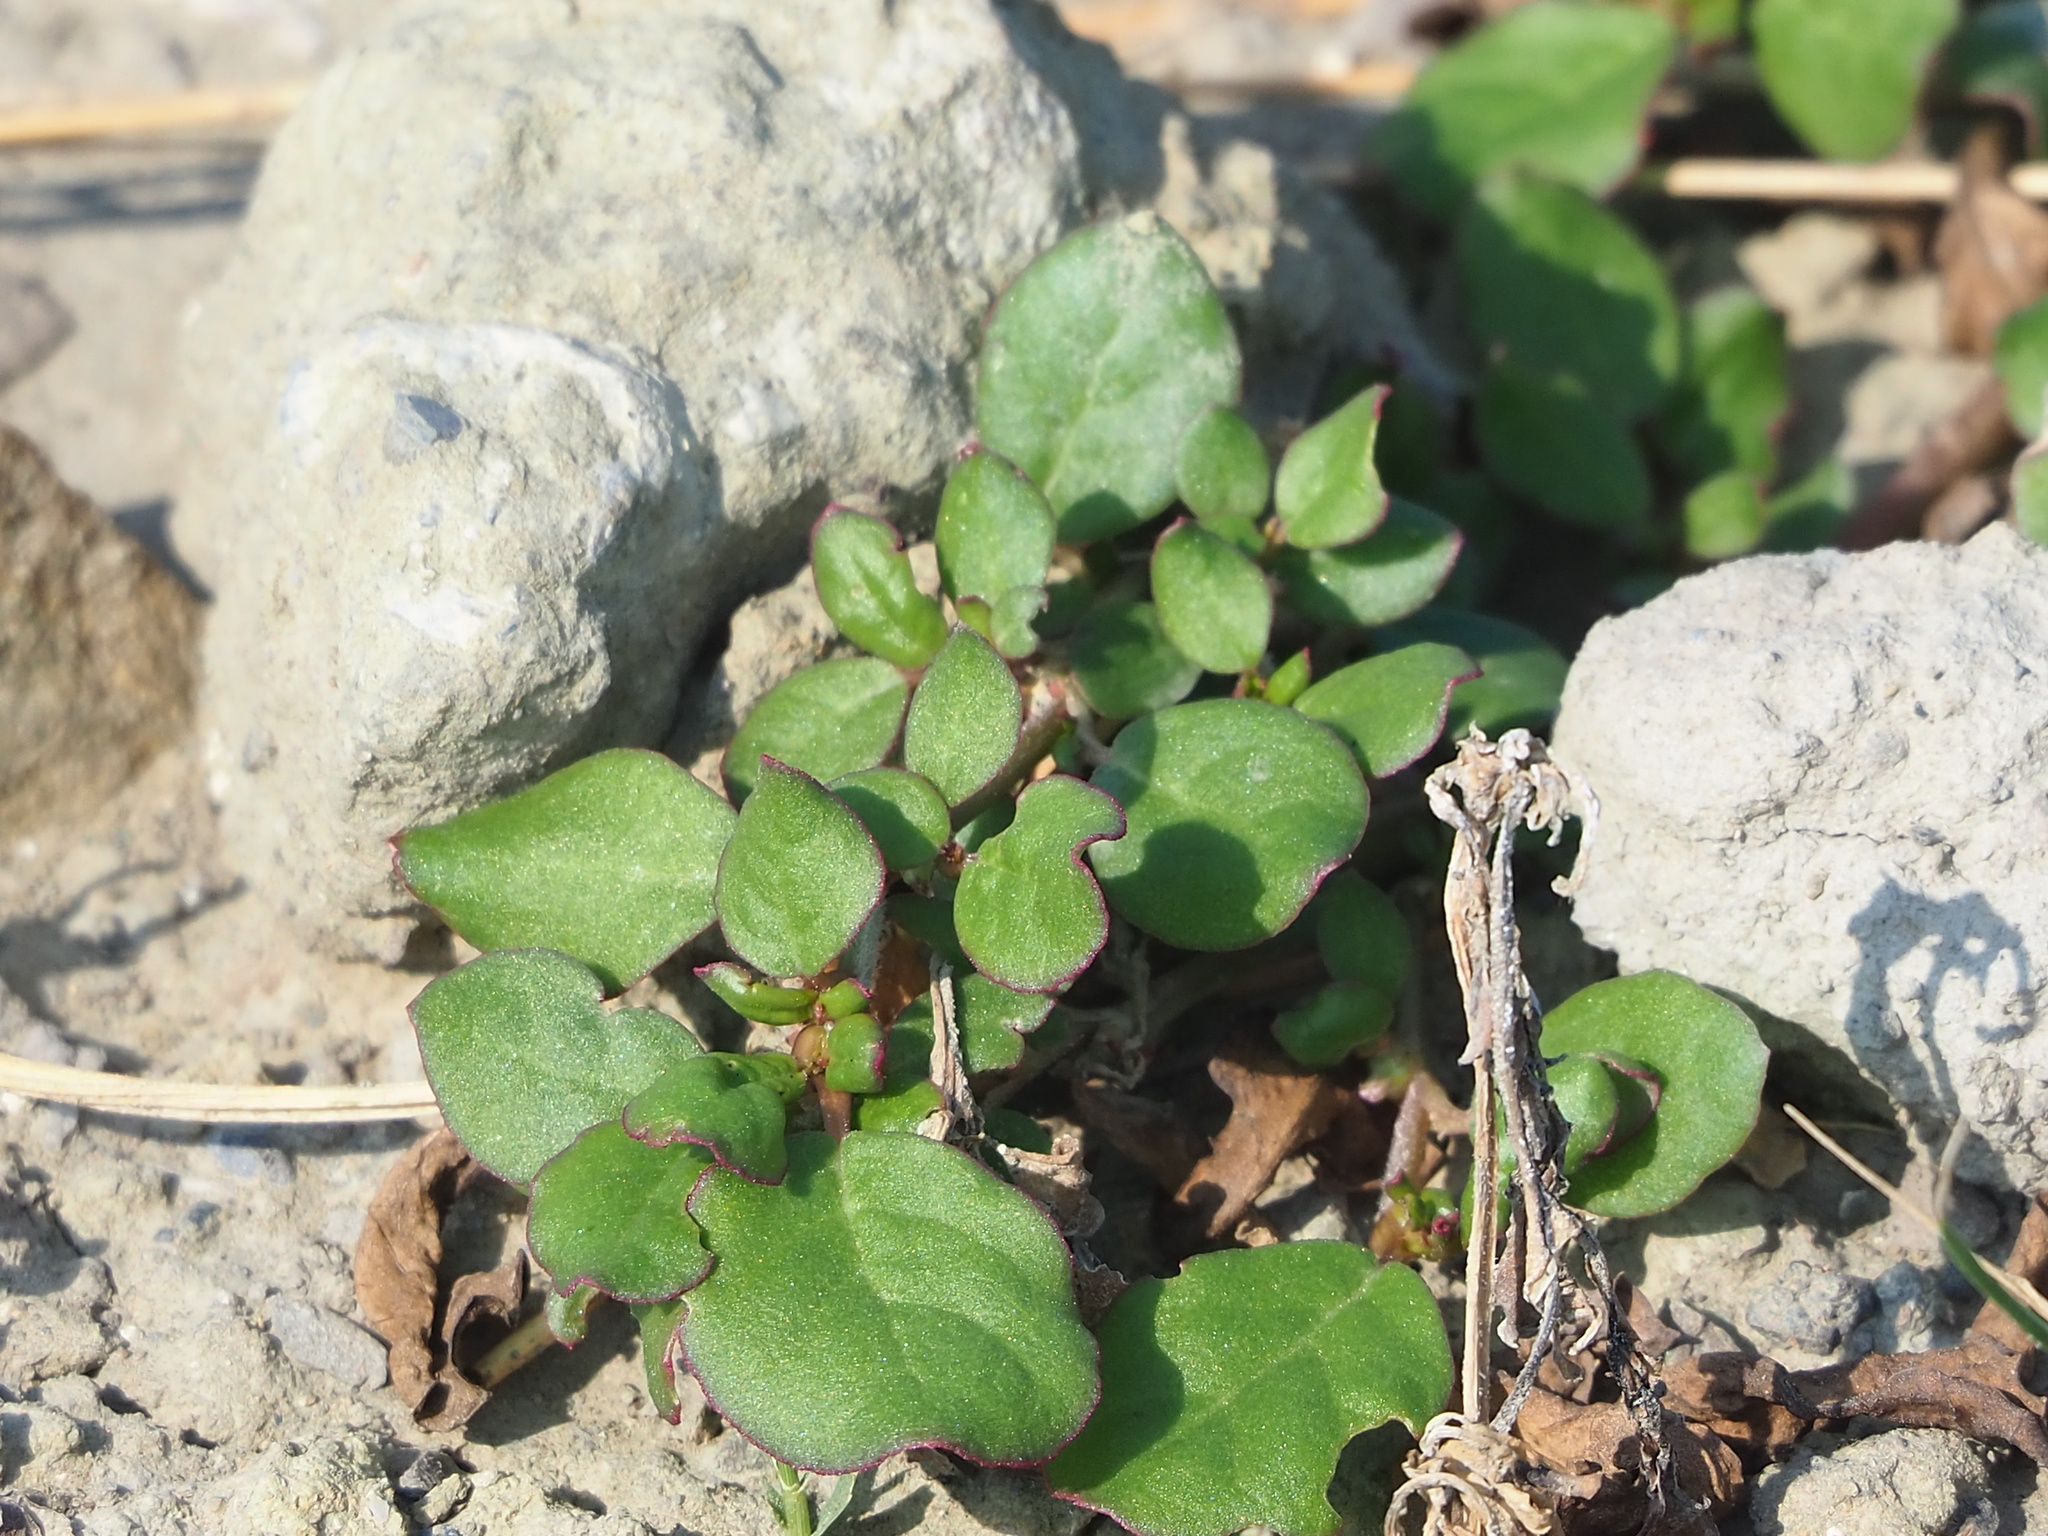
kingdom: Plantae
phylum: Tracheophyta
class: Magnoliopsida
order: Caryophyllales
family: Aizoaceae
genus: Trianthema
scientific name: Trianthema portulacastrum
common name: Desert horsepurslane
